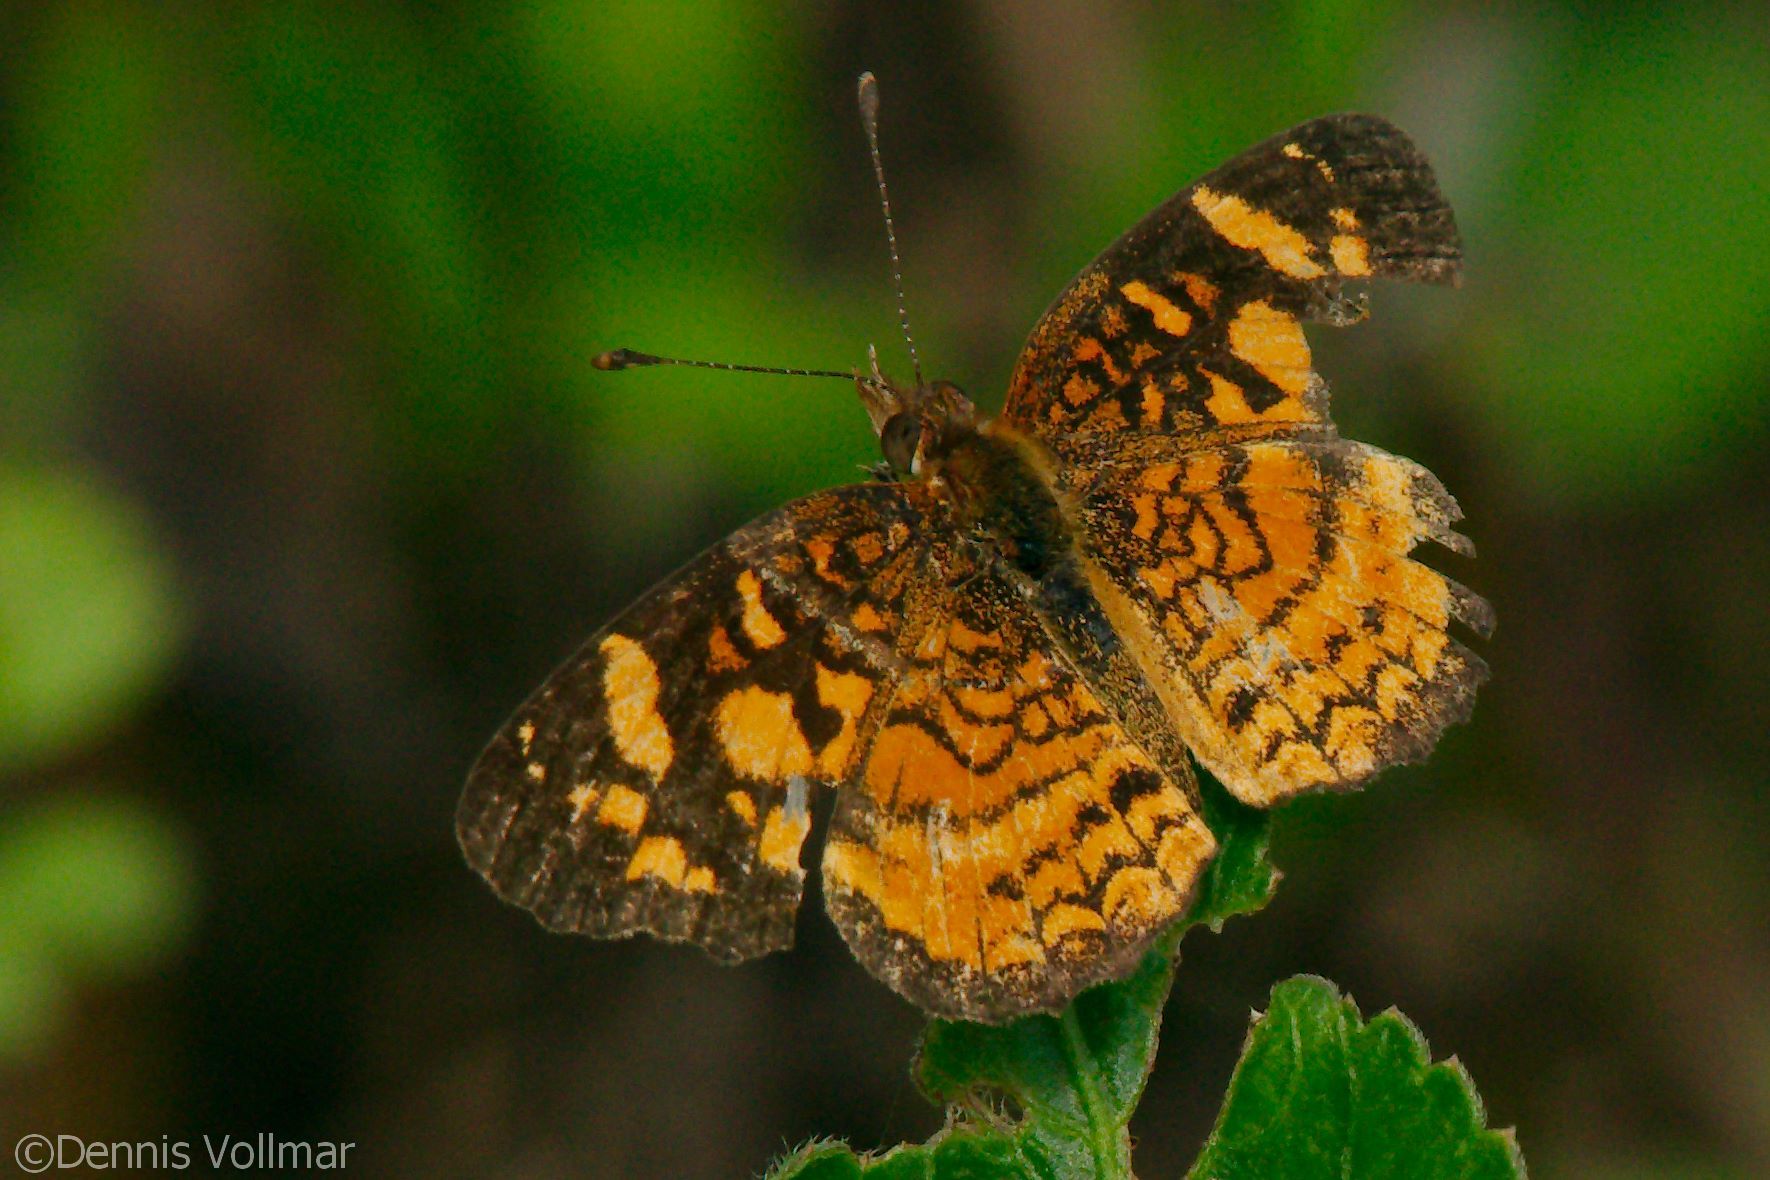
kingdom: Animalia
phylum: Arthropoda
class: Insecta
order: Lepidoptera
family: Nymphalidae
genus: Anthanassa
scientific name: Anthanassa frisia
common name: Cuban crescent
